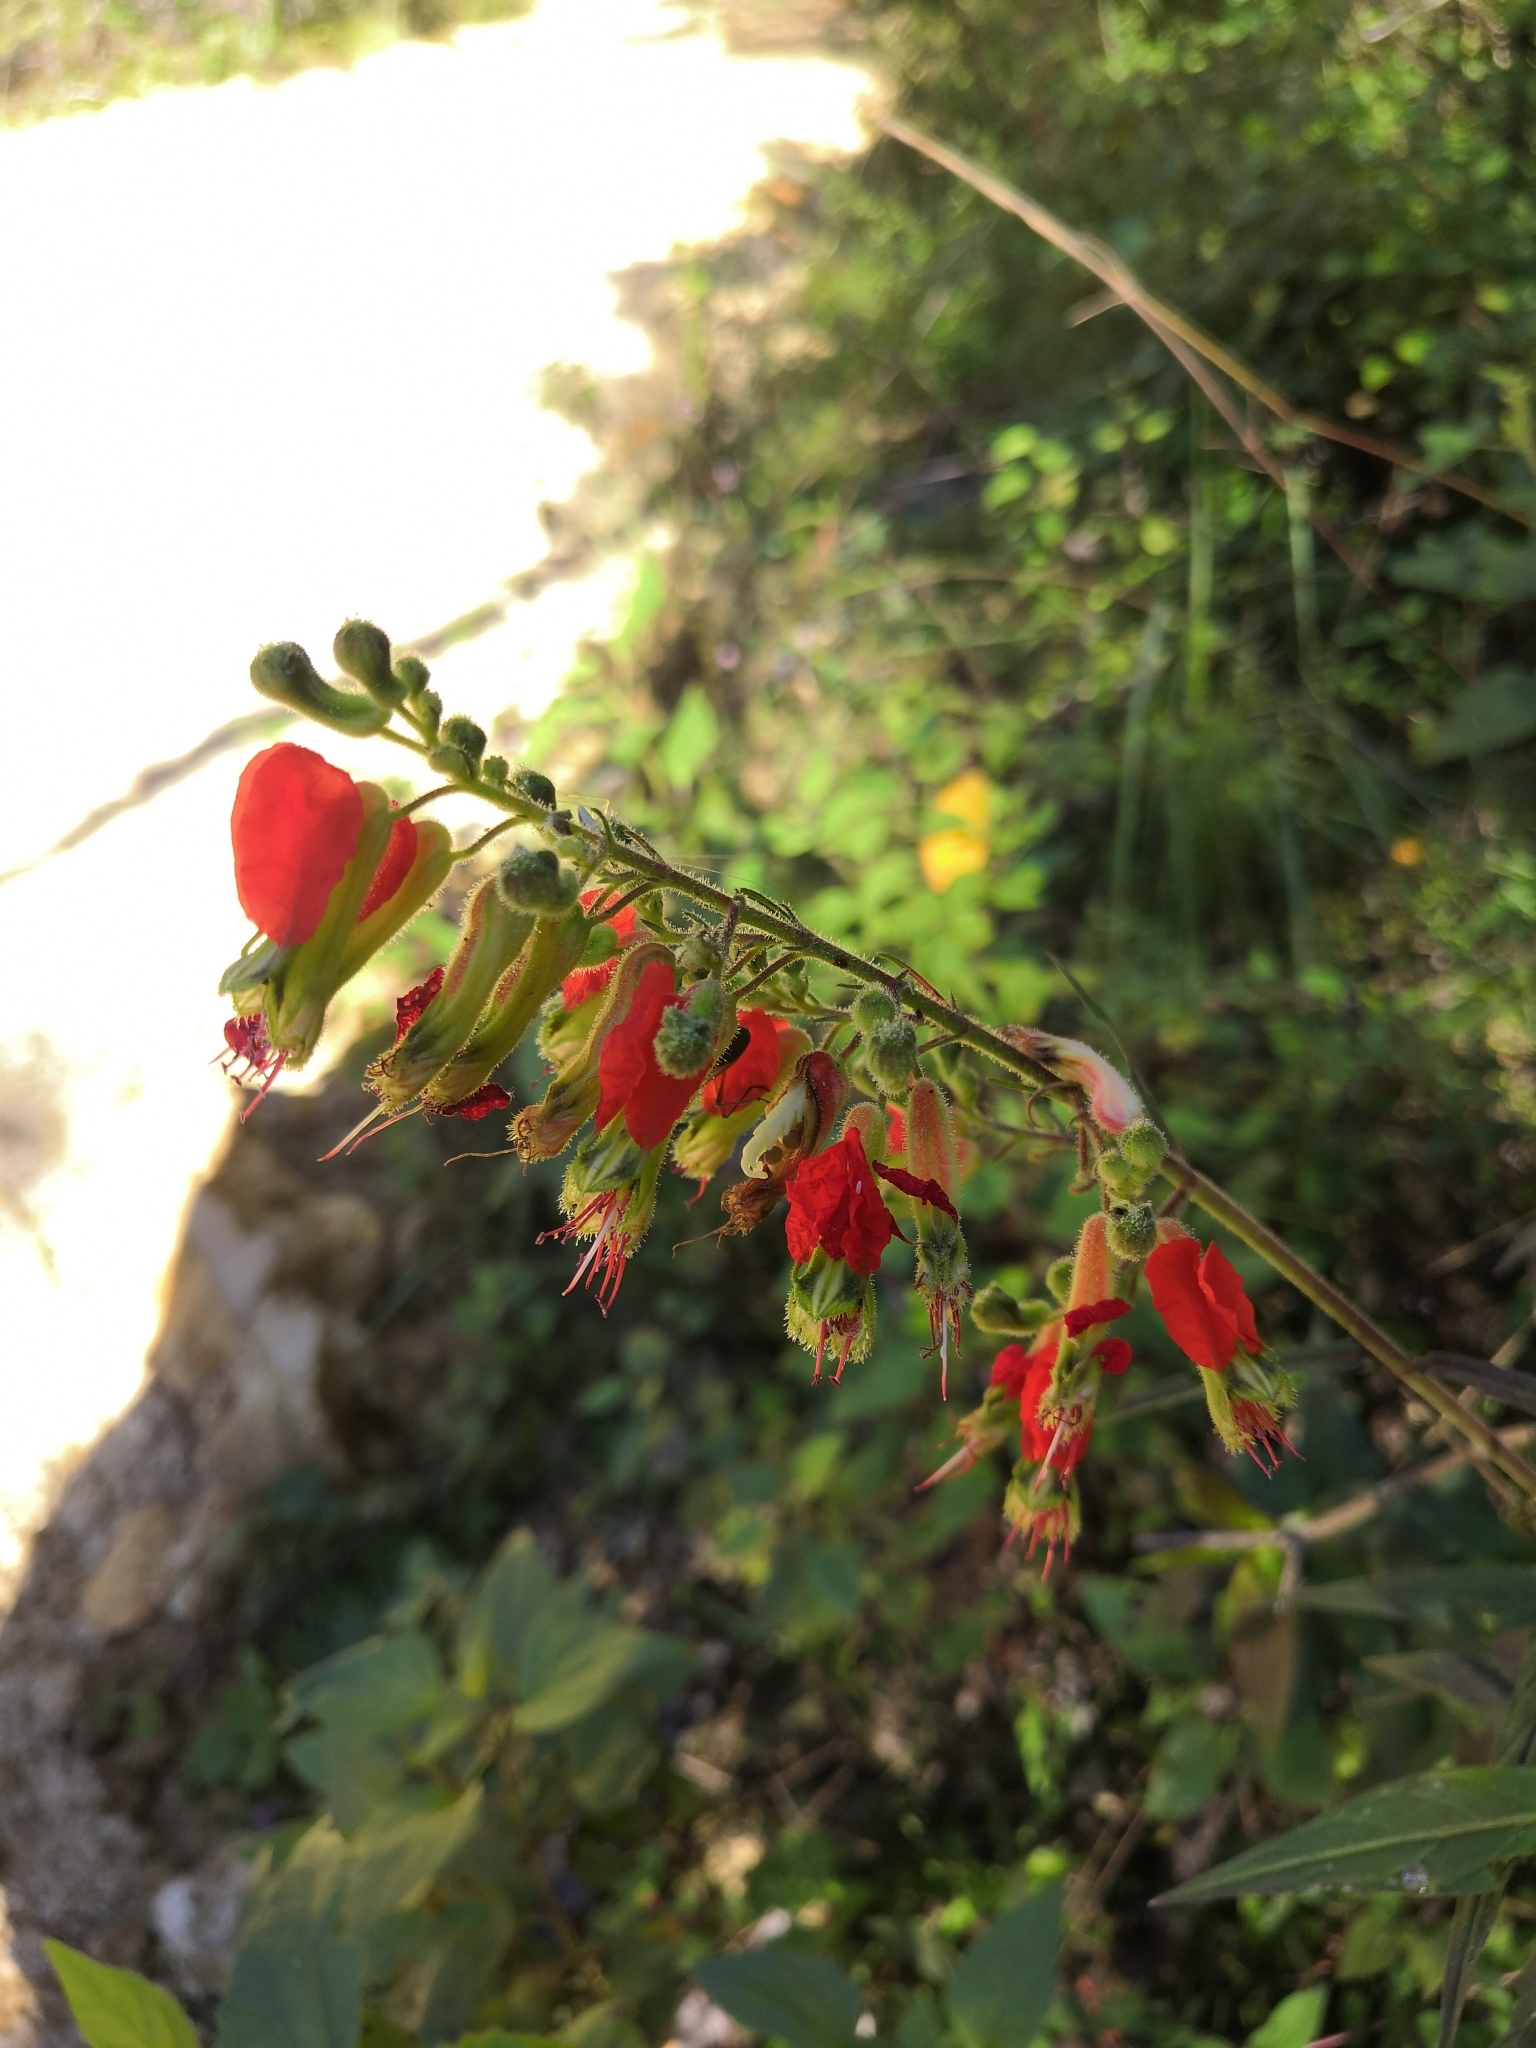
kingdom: Plantae
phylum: Tracheophyta
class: Magnoliopsida
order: Myrtales
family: Lythraceae
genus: Cuphea
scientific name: Cuphea hookeriana
